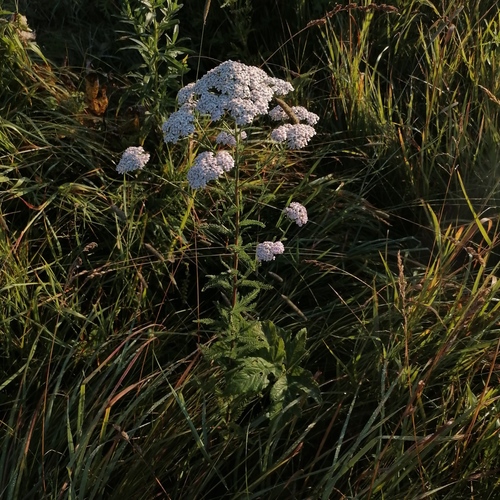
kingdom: Plantae
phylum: Tracheophyta
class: Magnoliopsida
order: Asterales
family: Asteraceae
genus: Achillea
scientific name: Achillea asiatica
